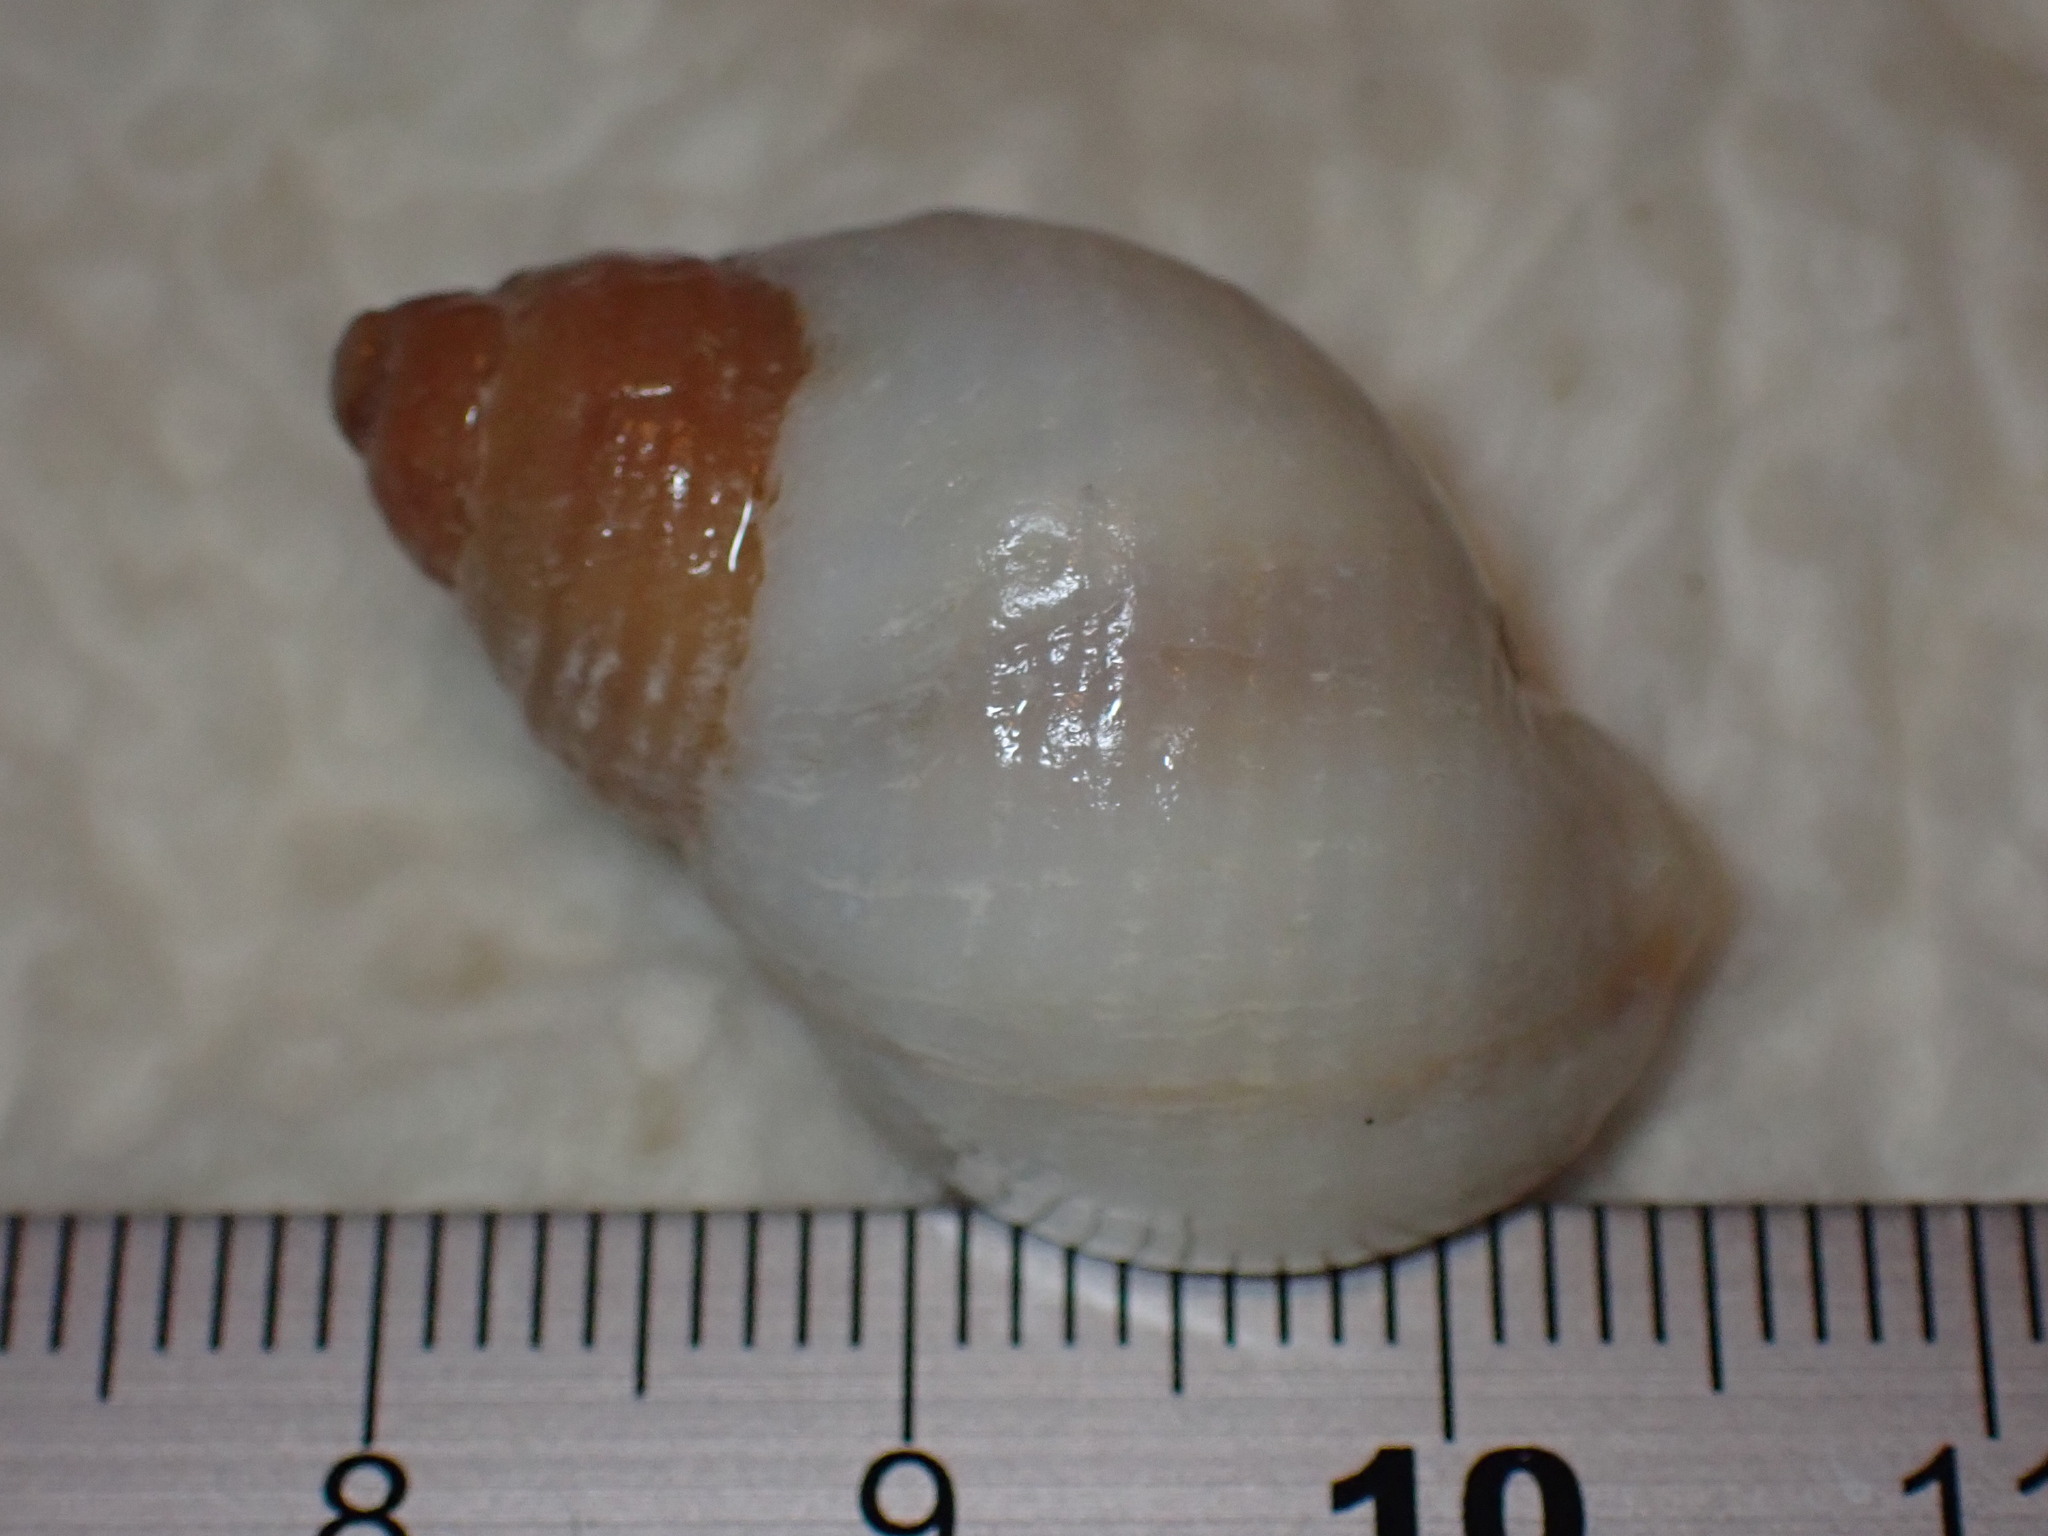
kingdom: Animalia
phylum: Mollusca
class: Gastropoda
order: Neogastropoda
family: Muricidae
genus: Nucella
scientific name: Nucella lapillus
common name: Dog whelk
